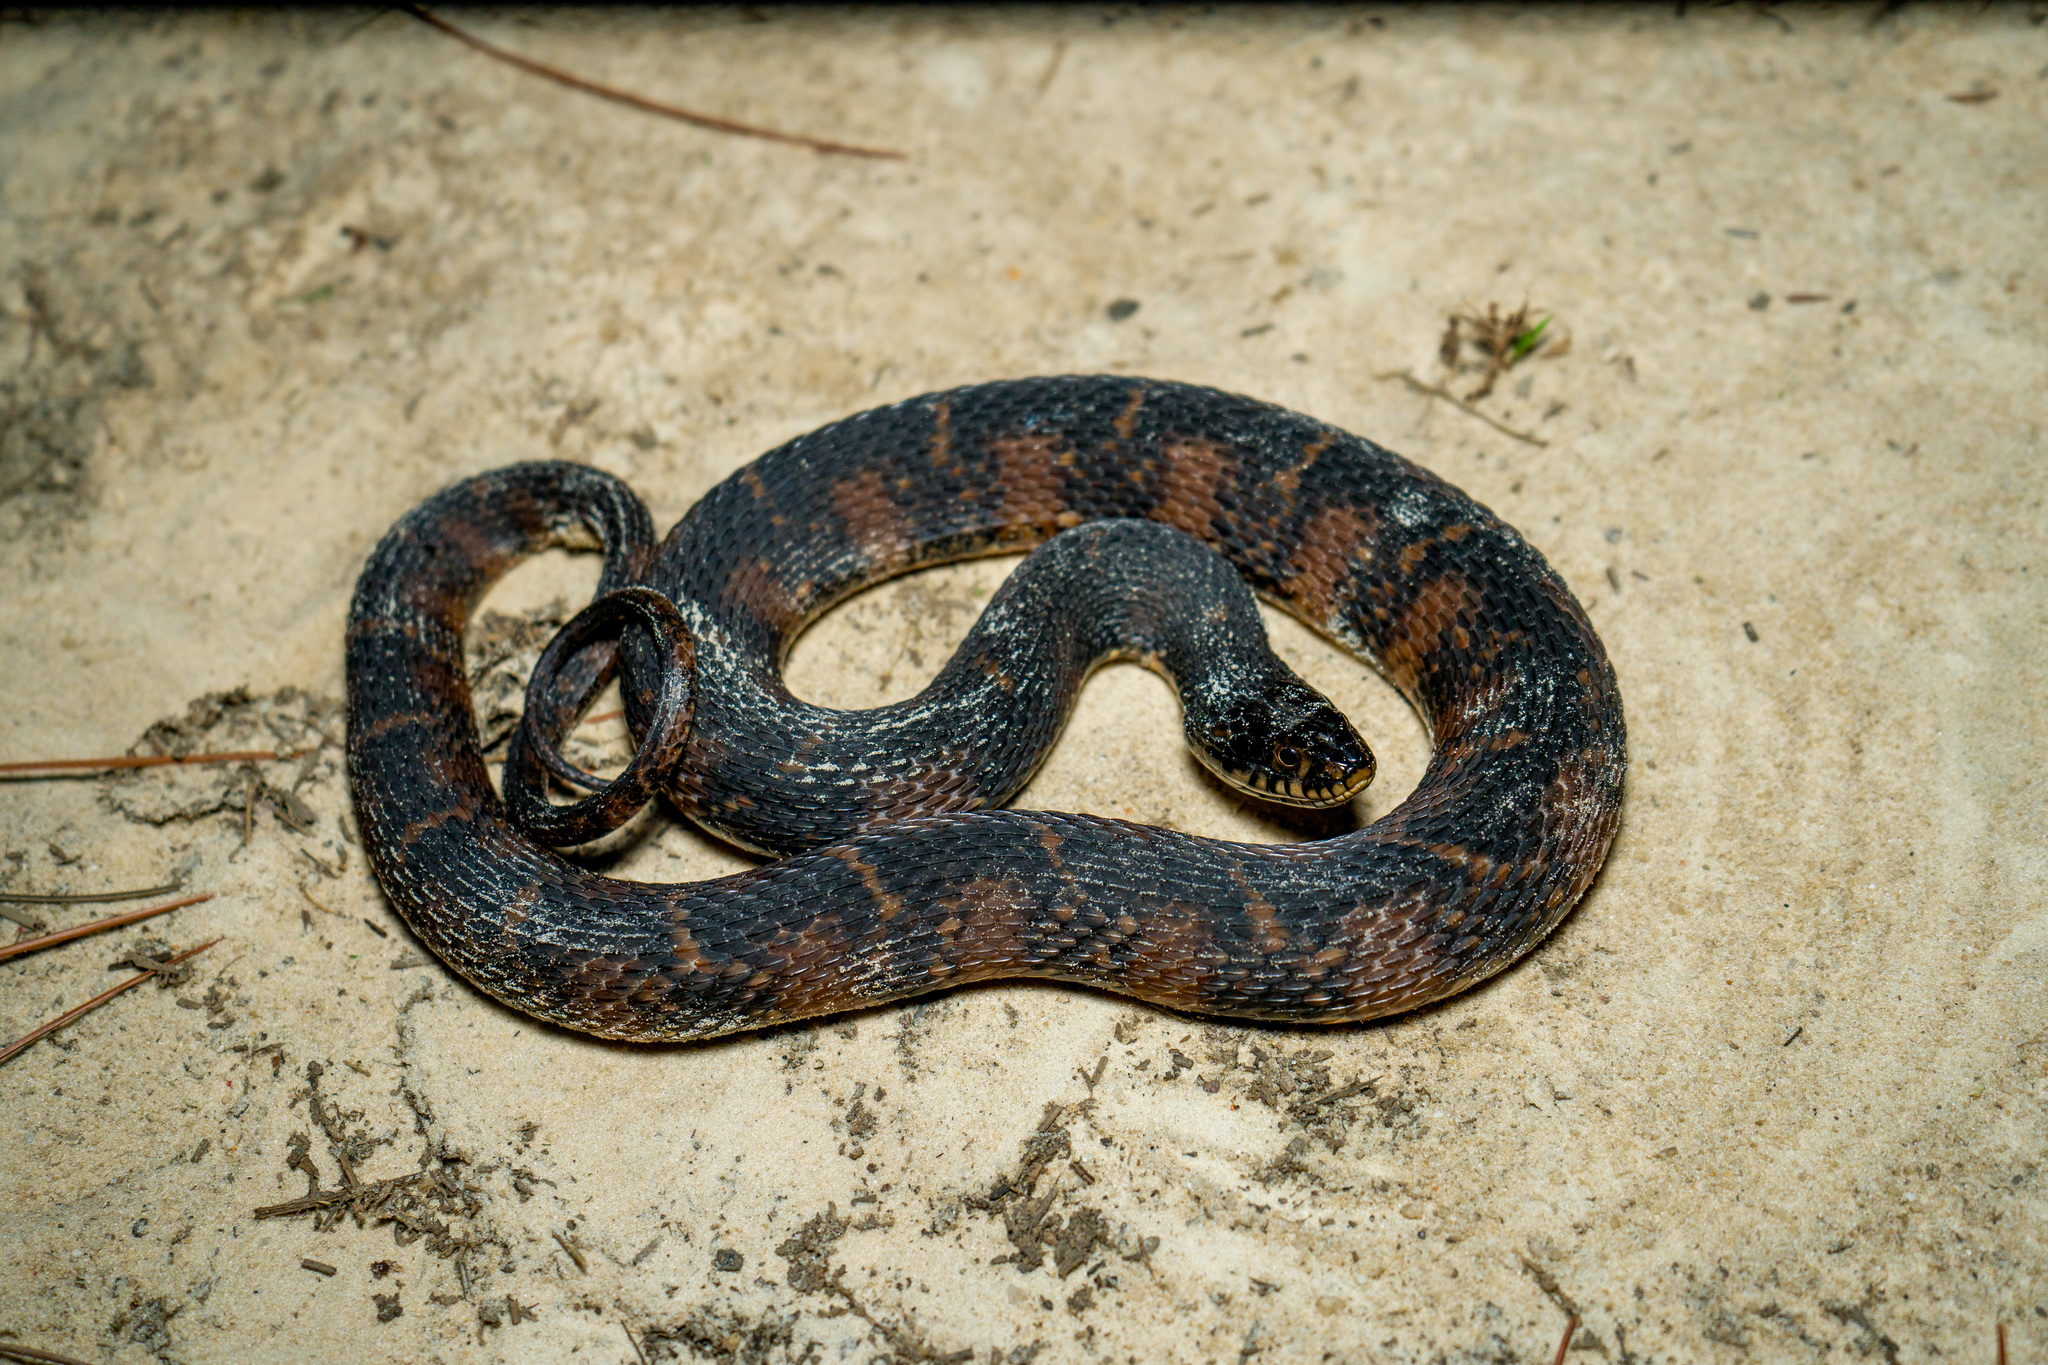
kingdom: Animalia
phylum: Chordata
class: Squamata
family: Colubridae
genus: Nerodia
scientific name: Nerodia fasciata
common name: Southern water snake
